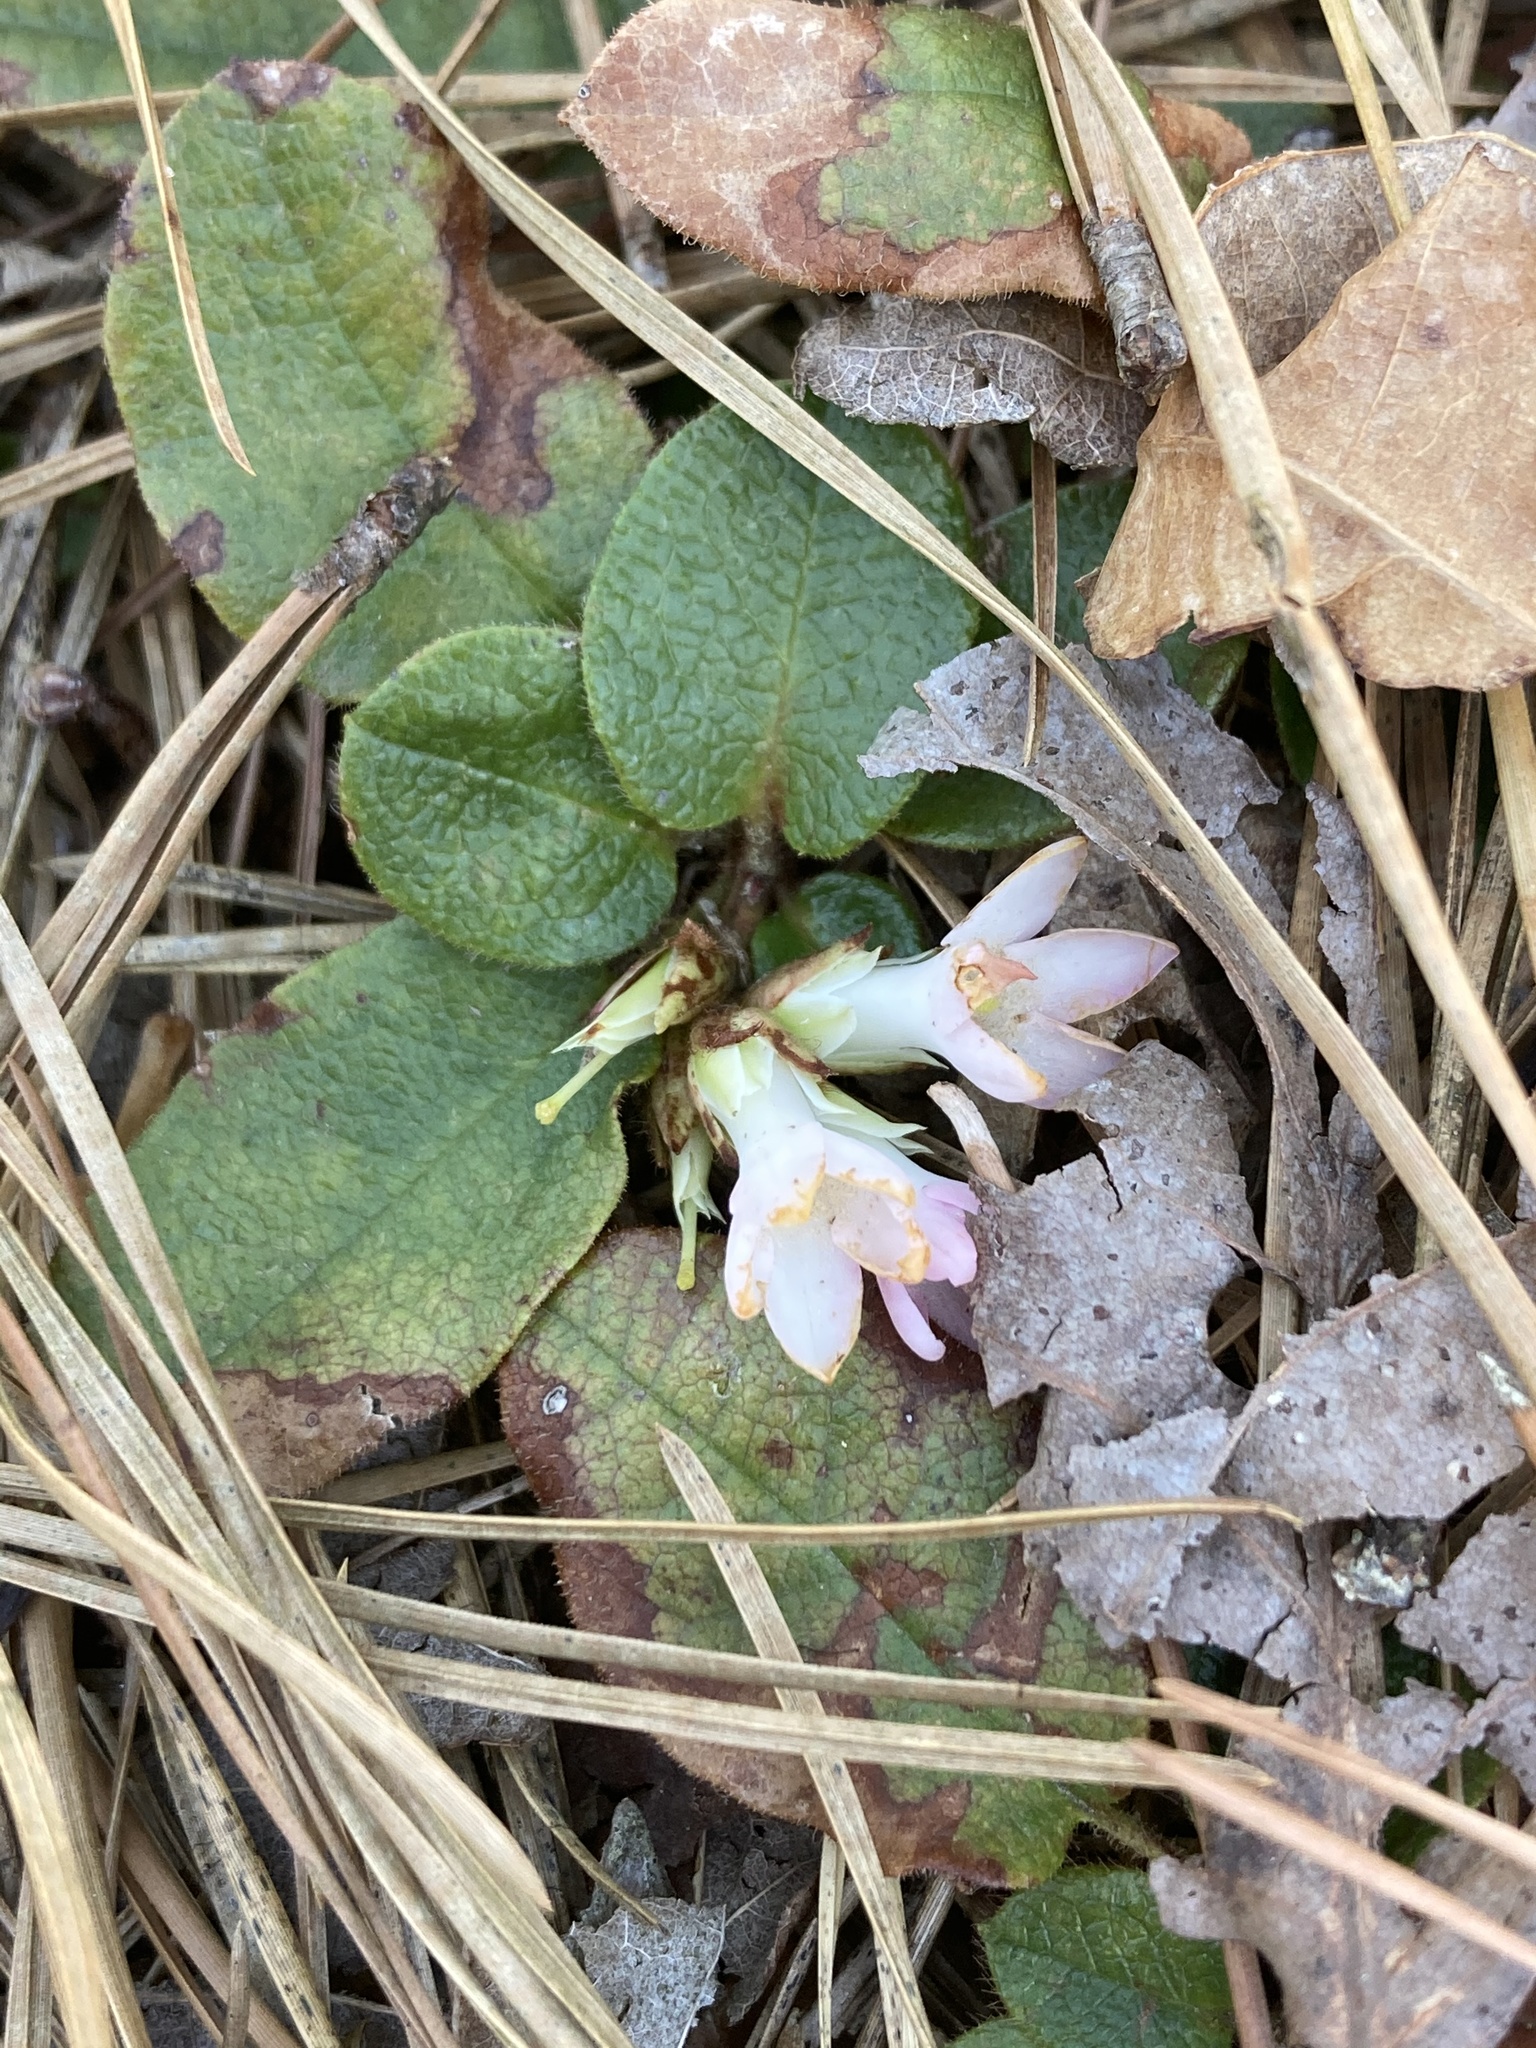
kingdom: Plantae
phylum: Tracheophyta
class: Magnoliopsida
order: Ericales
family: Ericaceae
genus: Epigaea
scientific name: Epigaea repens
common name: Gravelroot
